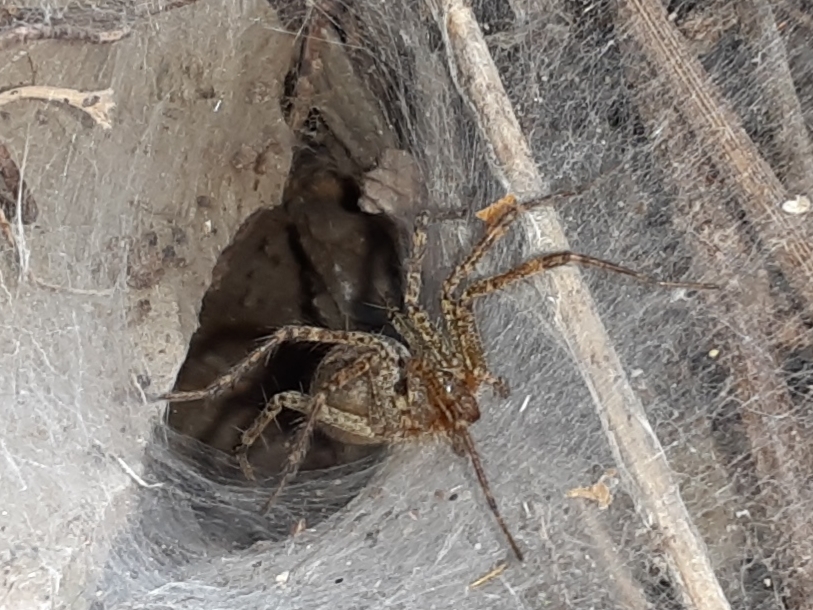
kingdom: Animalia
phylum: Arthropoda
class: Arachnida
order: Araneae
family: Agelenidae
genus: Agelenopsis
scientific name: Agelenopsis
